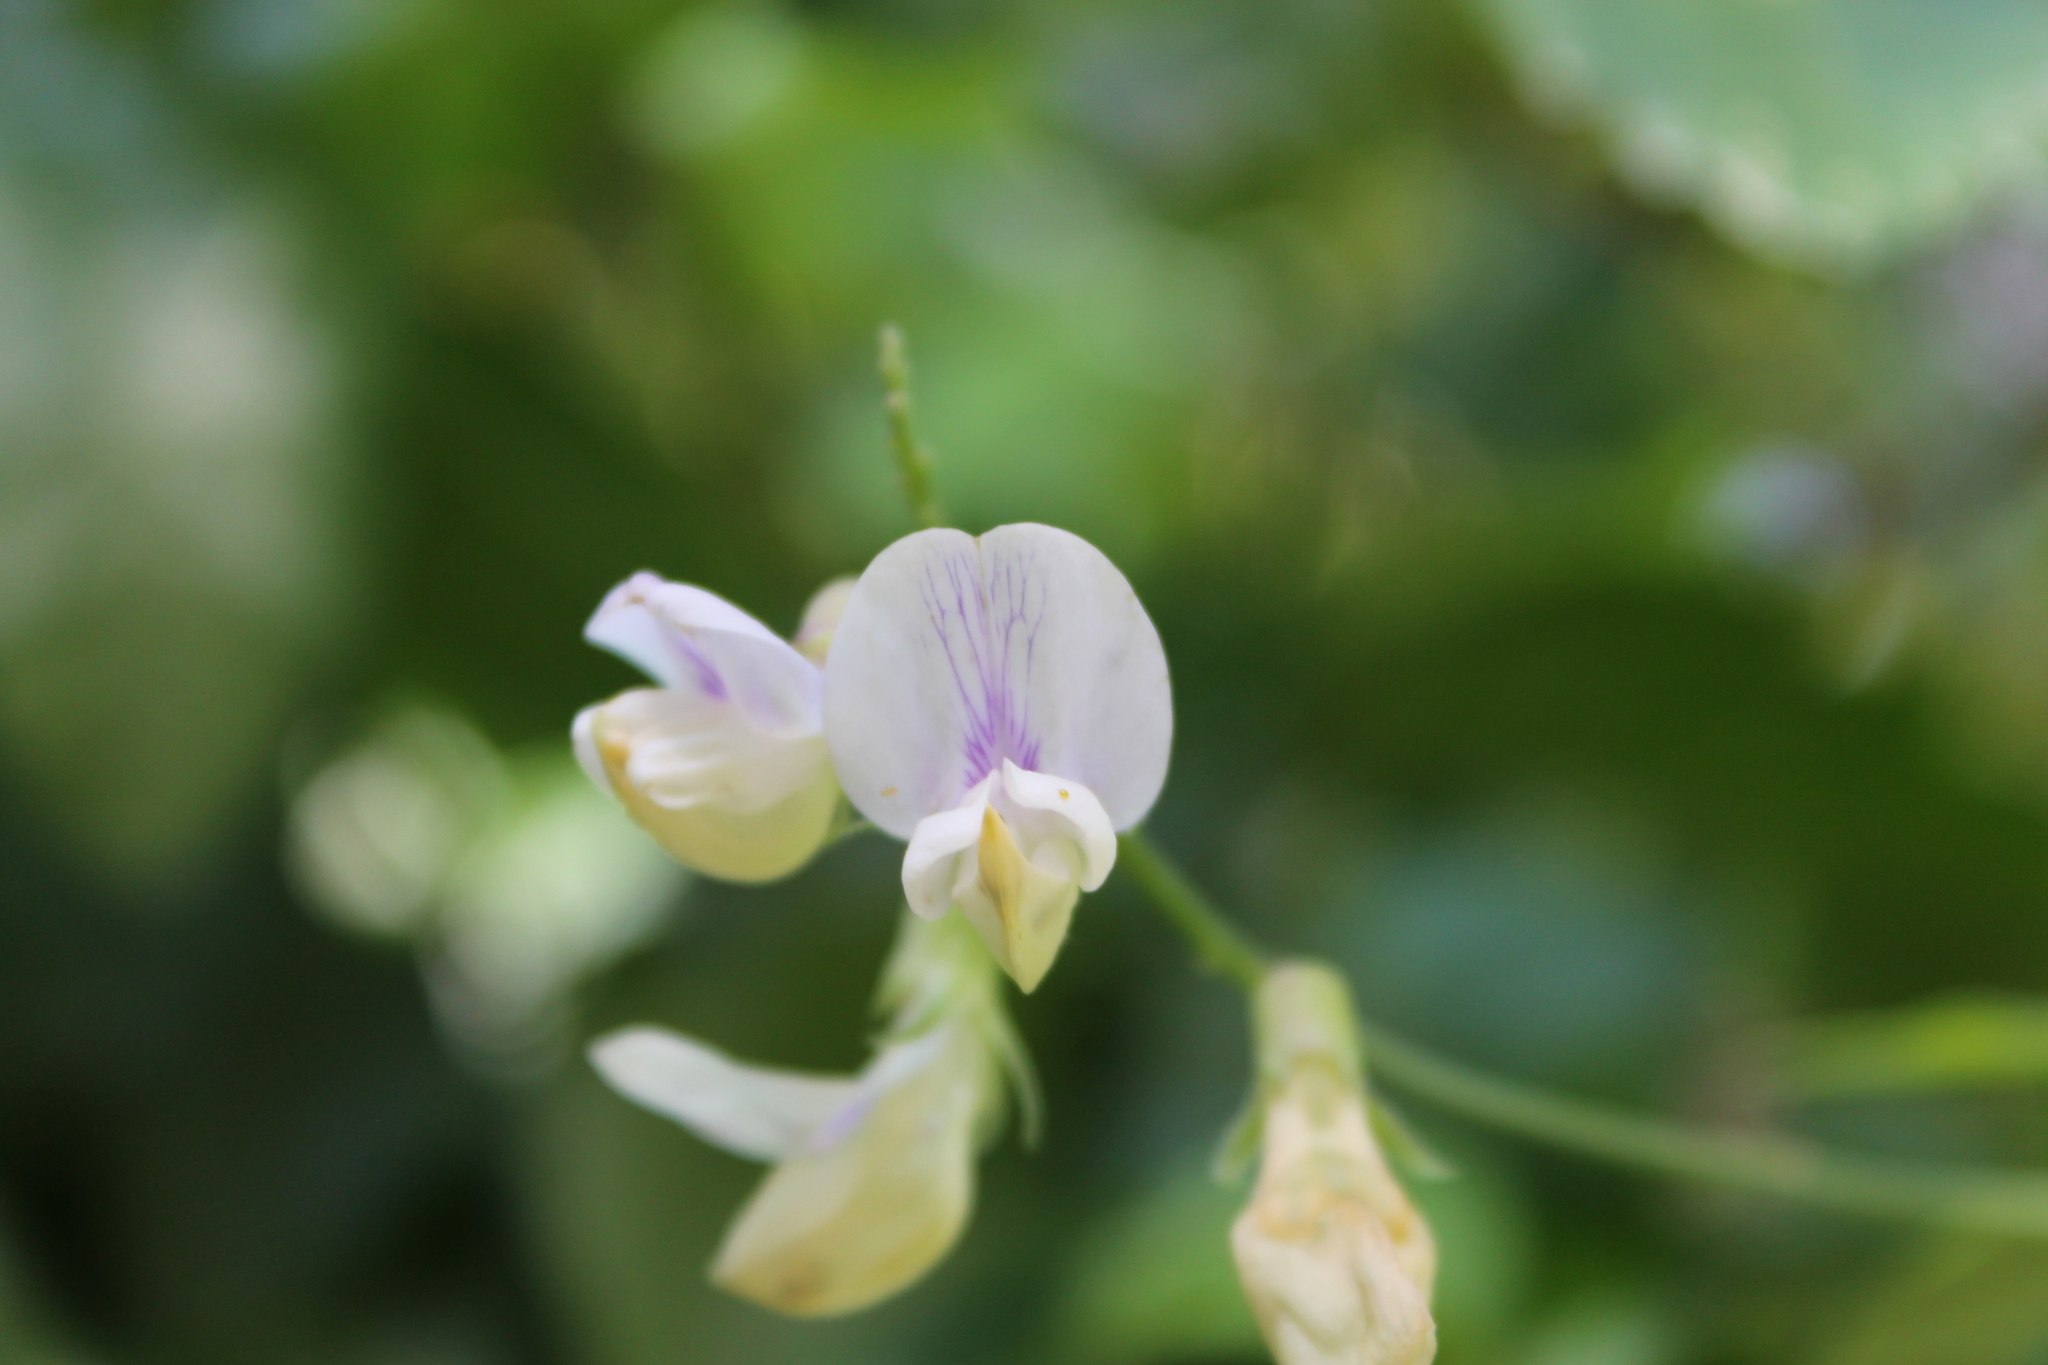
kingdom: Plantae
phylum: Tracheophyta
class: Magnoliopsida
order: Fabales
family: Fabaceae
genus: Lathyrus
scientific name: Lathyrus vestitus
